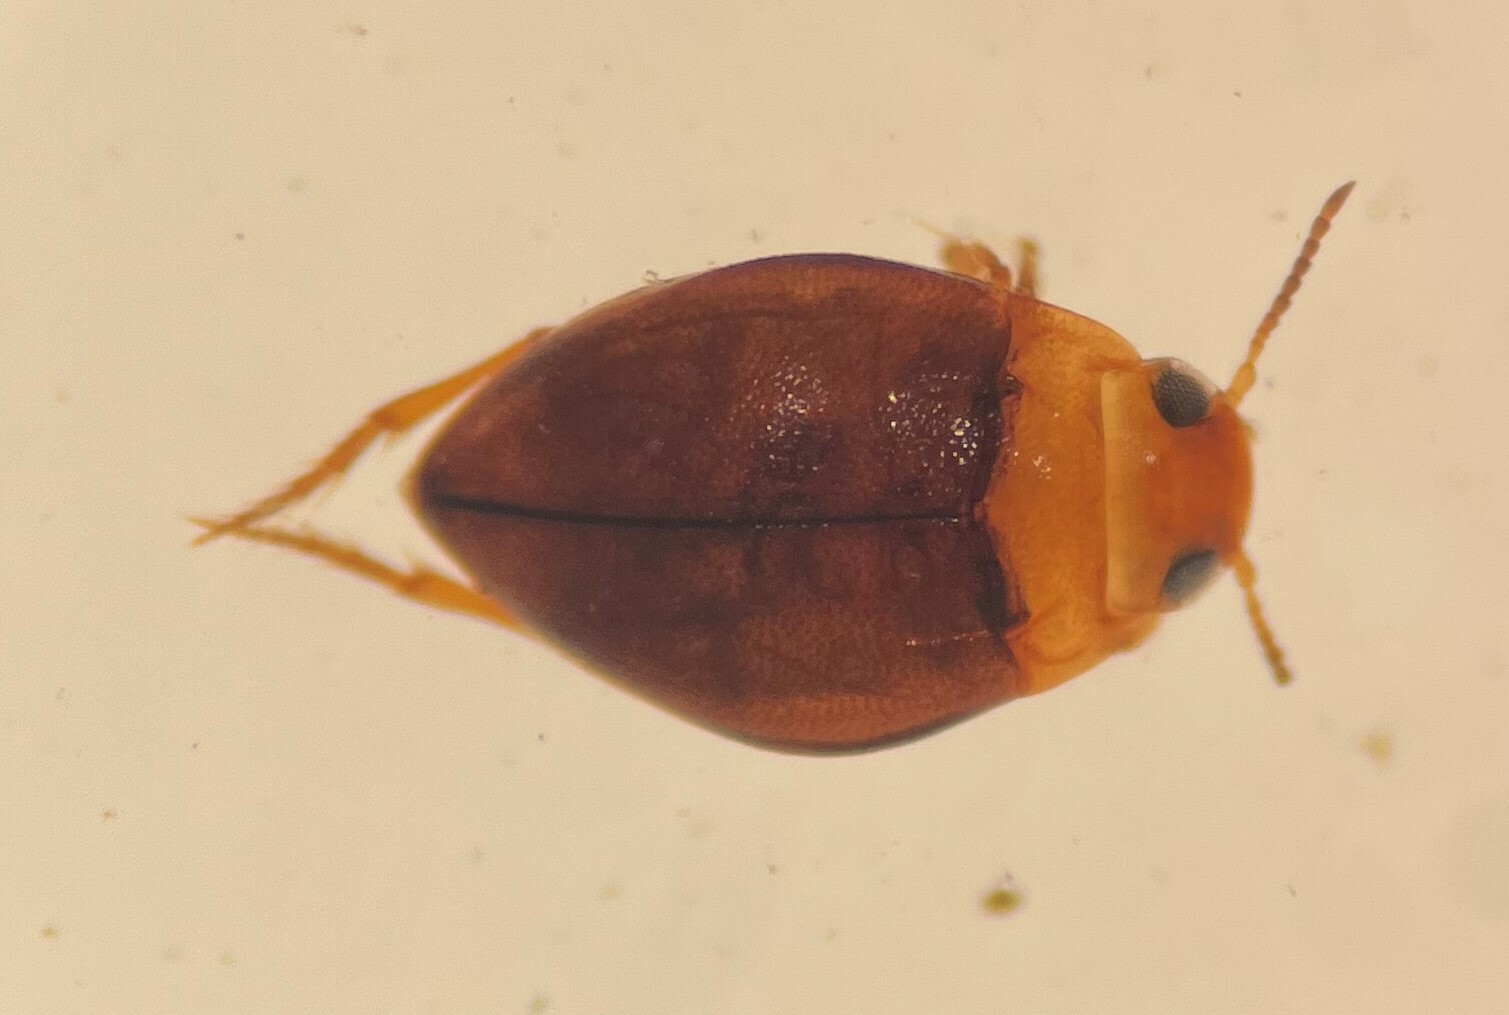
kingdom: Animalia
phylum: Arthropoda
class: Insecta
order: Coleoptera
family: Dytiscidae
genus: Uvarus
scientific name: Uvarus inflatus
